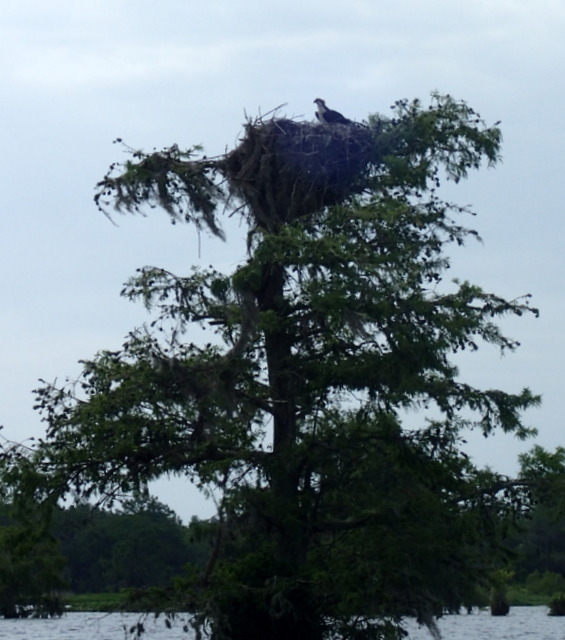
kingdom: Animalia
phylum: Chordata
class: Aves
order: Accipitriformes
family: Pandionidae
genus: Pandion
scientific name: Pandion haliaetus
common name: Osprey
